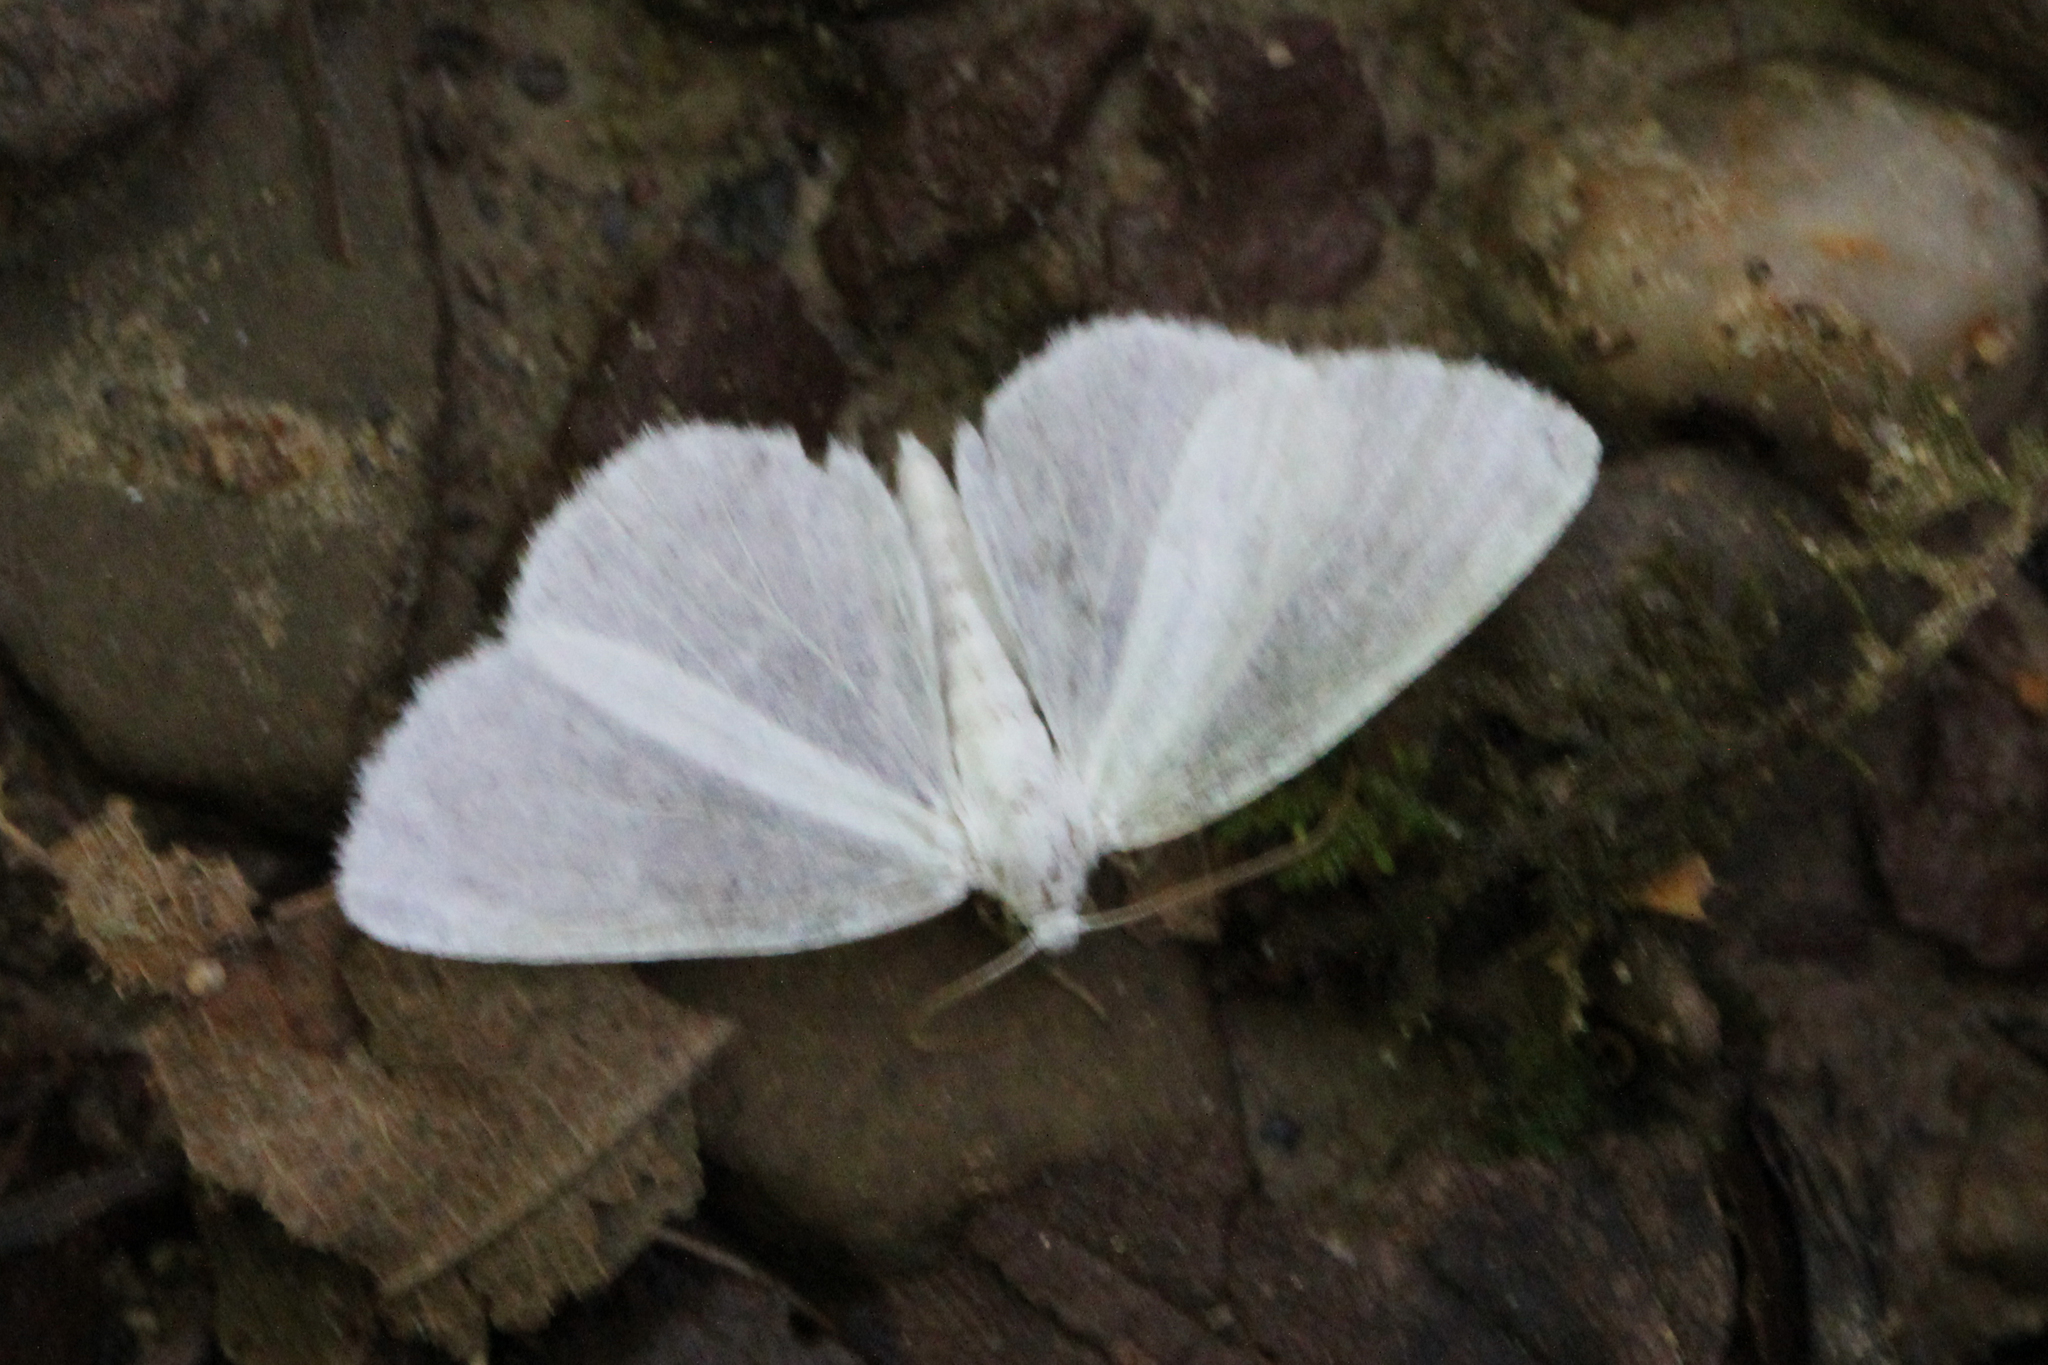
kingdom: Animalia
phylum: Arthropoda
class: Insecta
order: Lepidoptera
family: Geometridae
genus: Lomographa
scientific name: Lomographa vestaliata
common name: White spring moth
